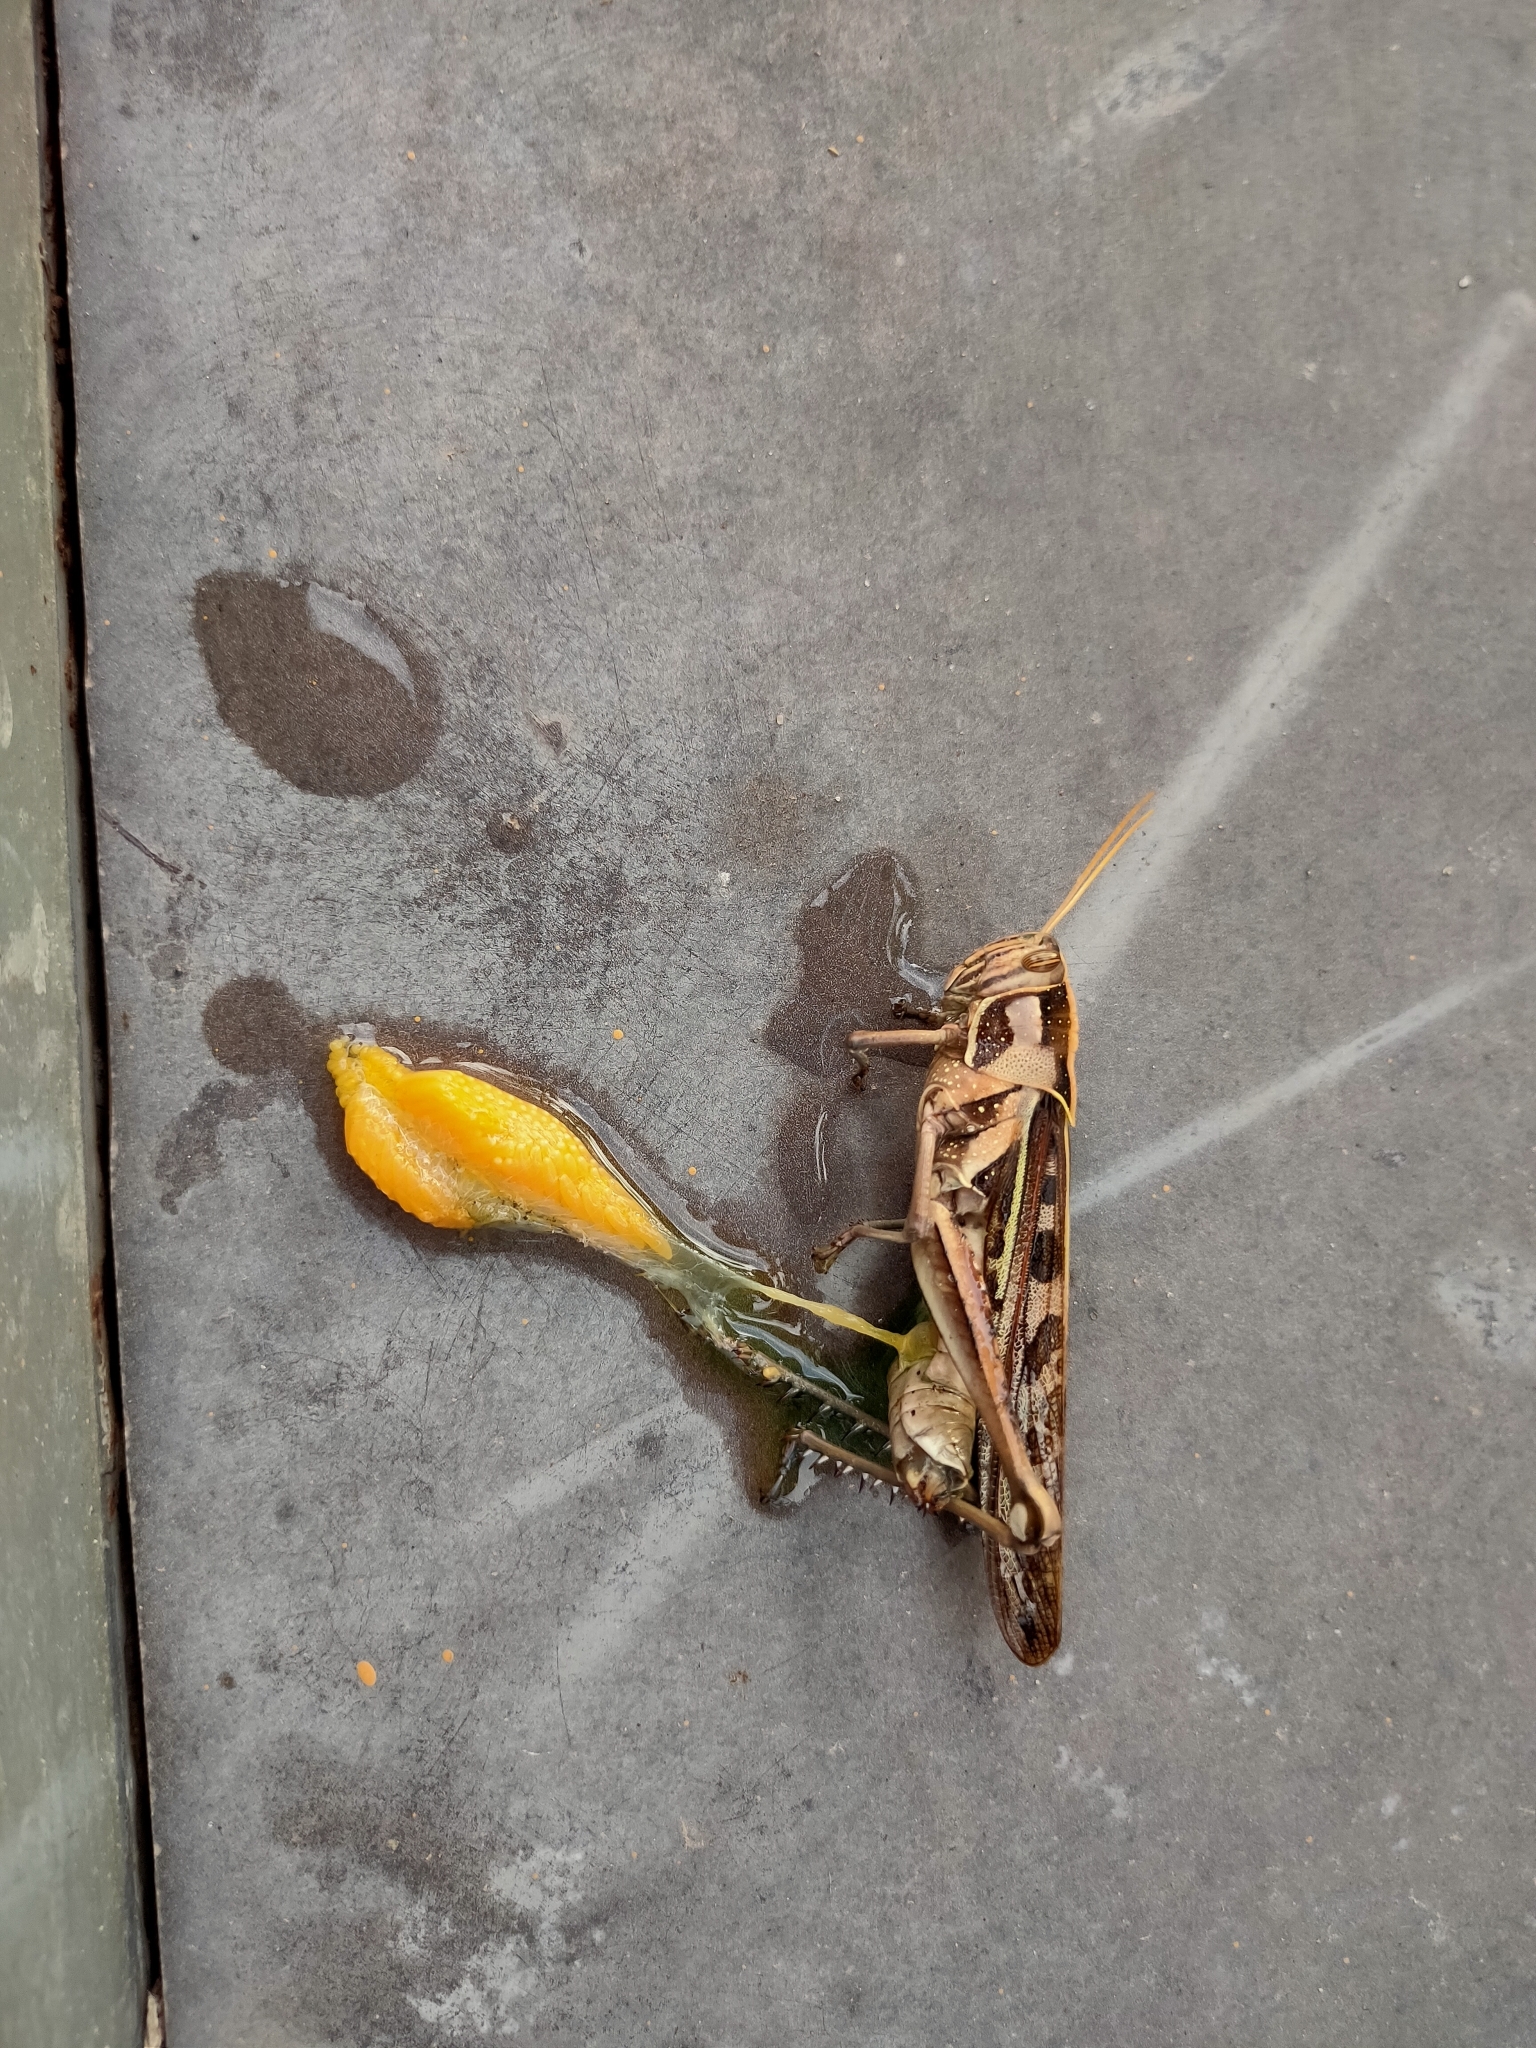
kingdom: Animalia
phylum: Arthropoda
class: Insecta
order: Orthoptera
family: Acrididae
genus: Cyrtacanthacris
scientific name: Cyrtacanthacris tatarica
